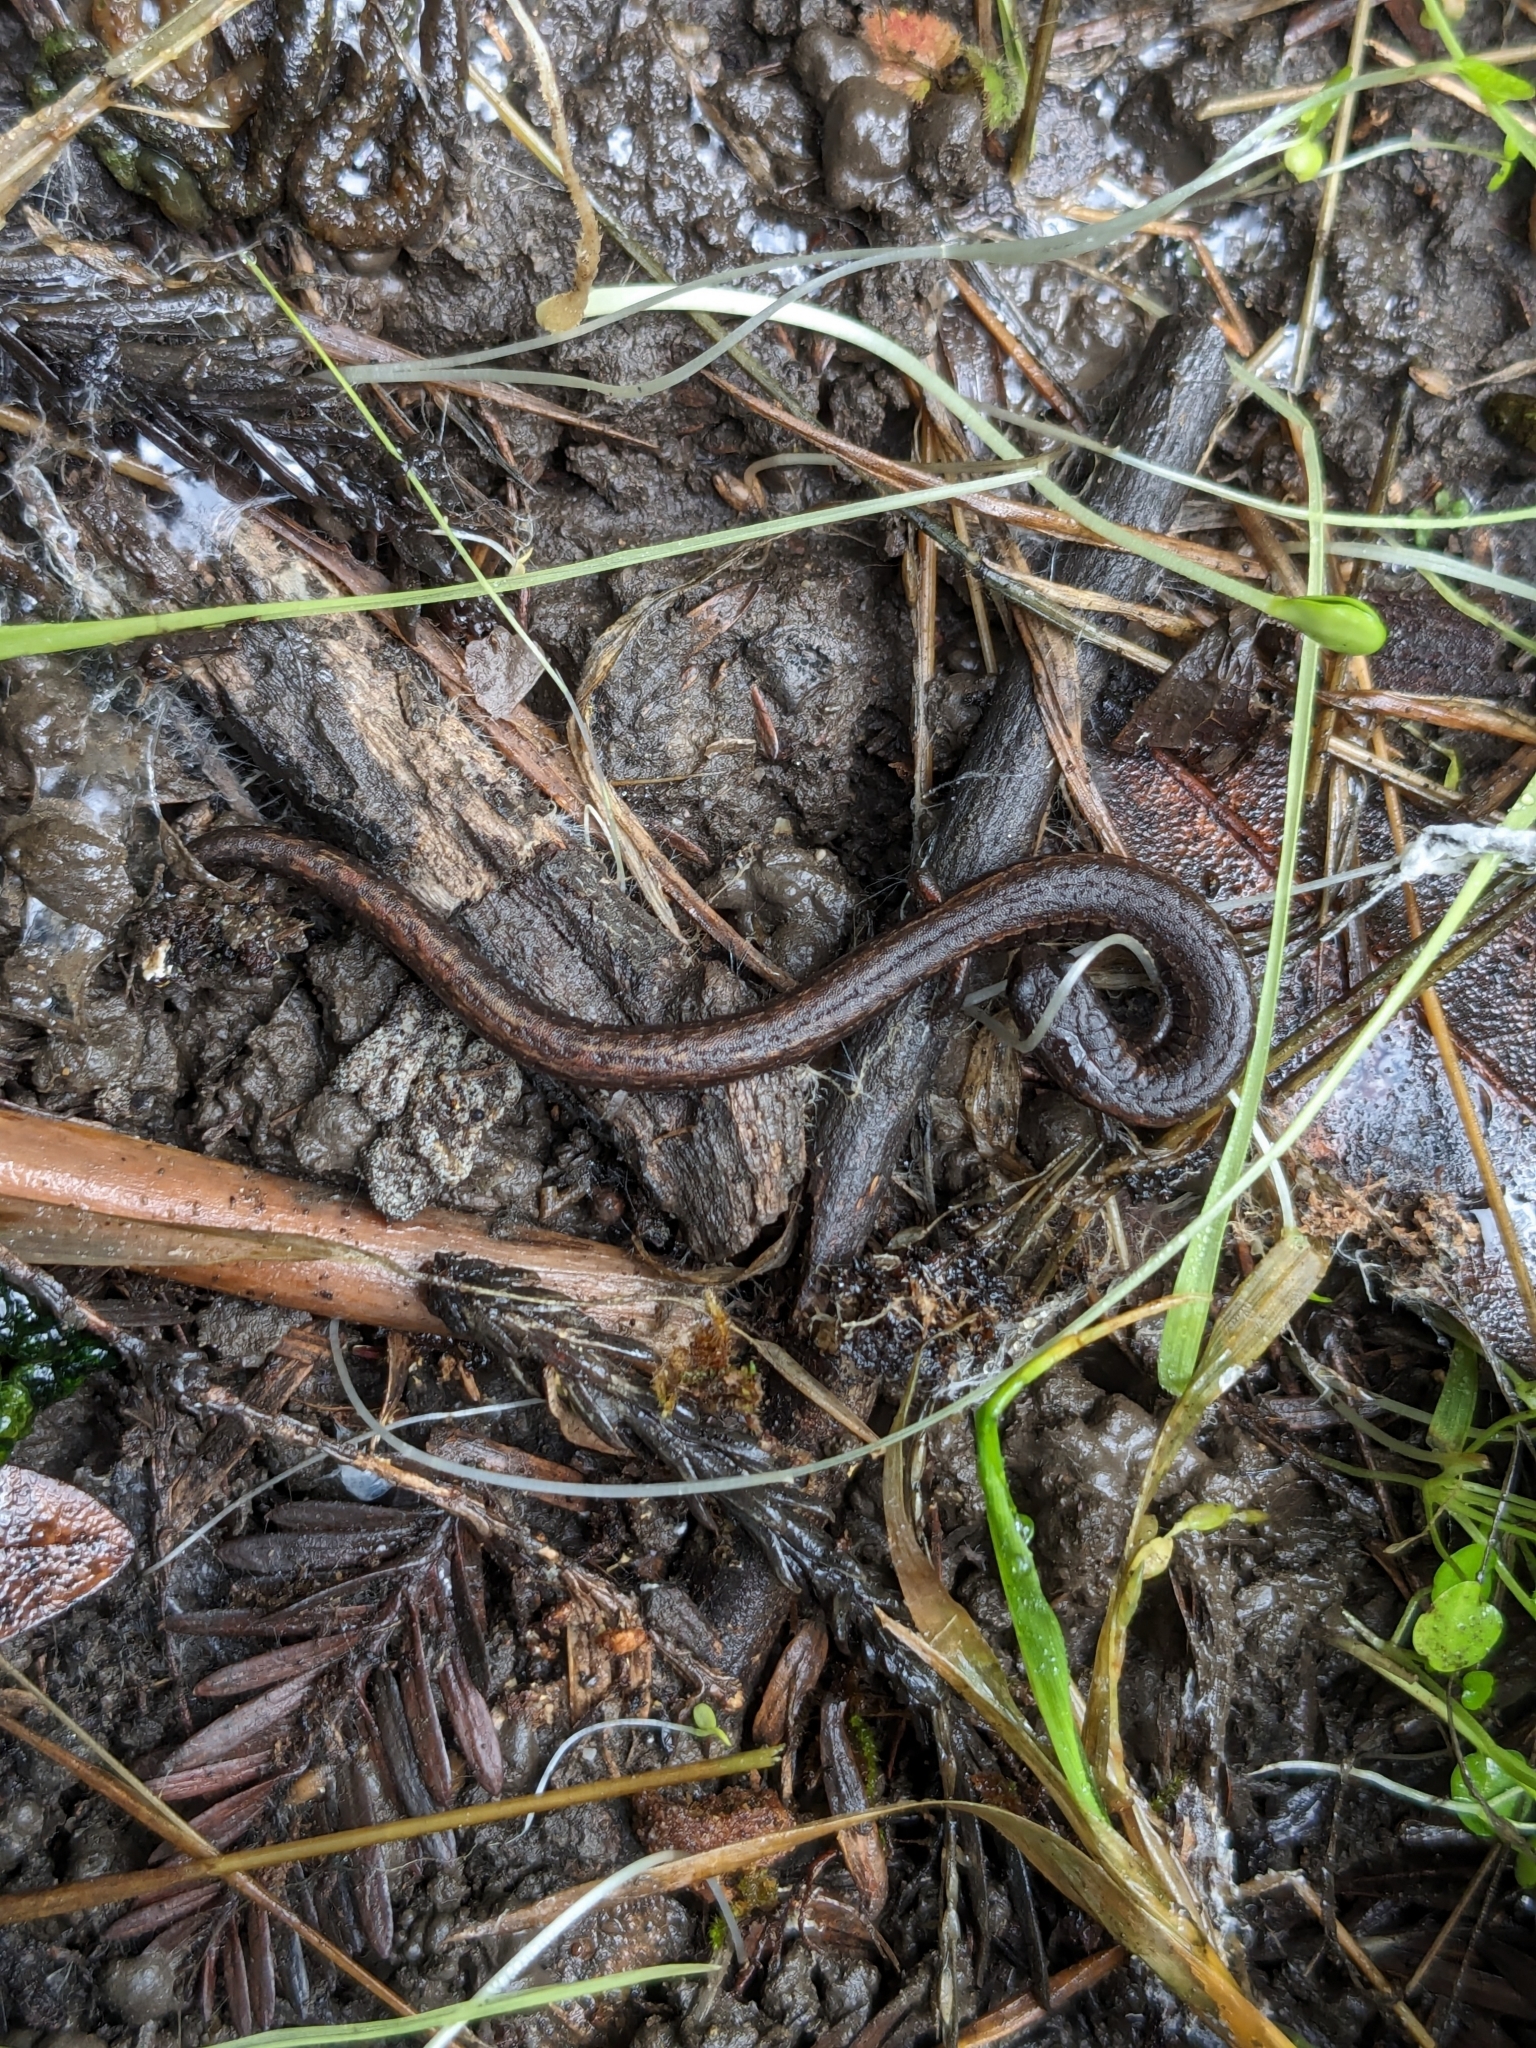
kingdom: Animalia
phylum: Chordata
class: Amphibia
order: Caudata
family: Plethodontidae
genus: Batrachoseps
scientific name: Batrachoseps attenuatus
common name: California slender salamander
